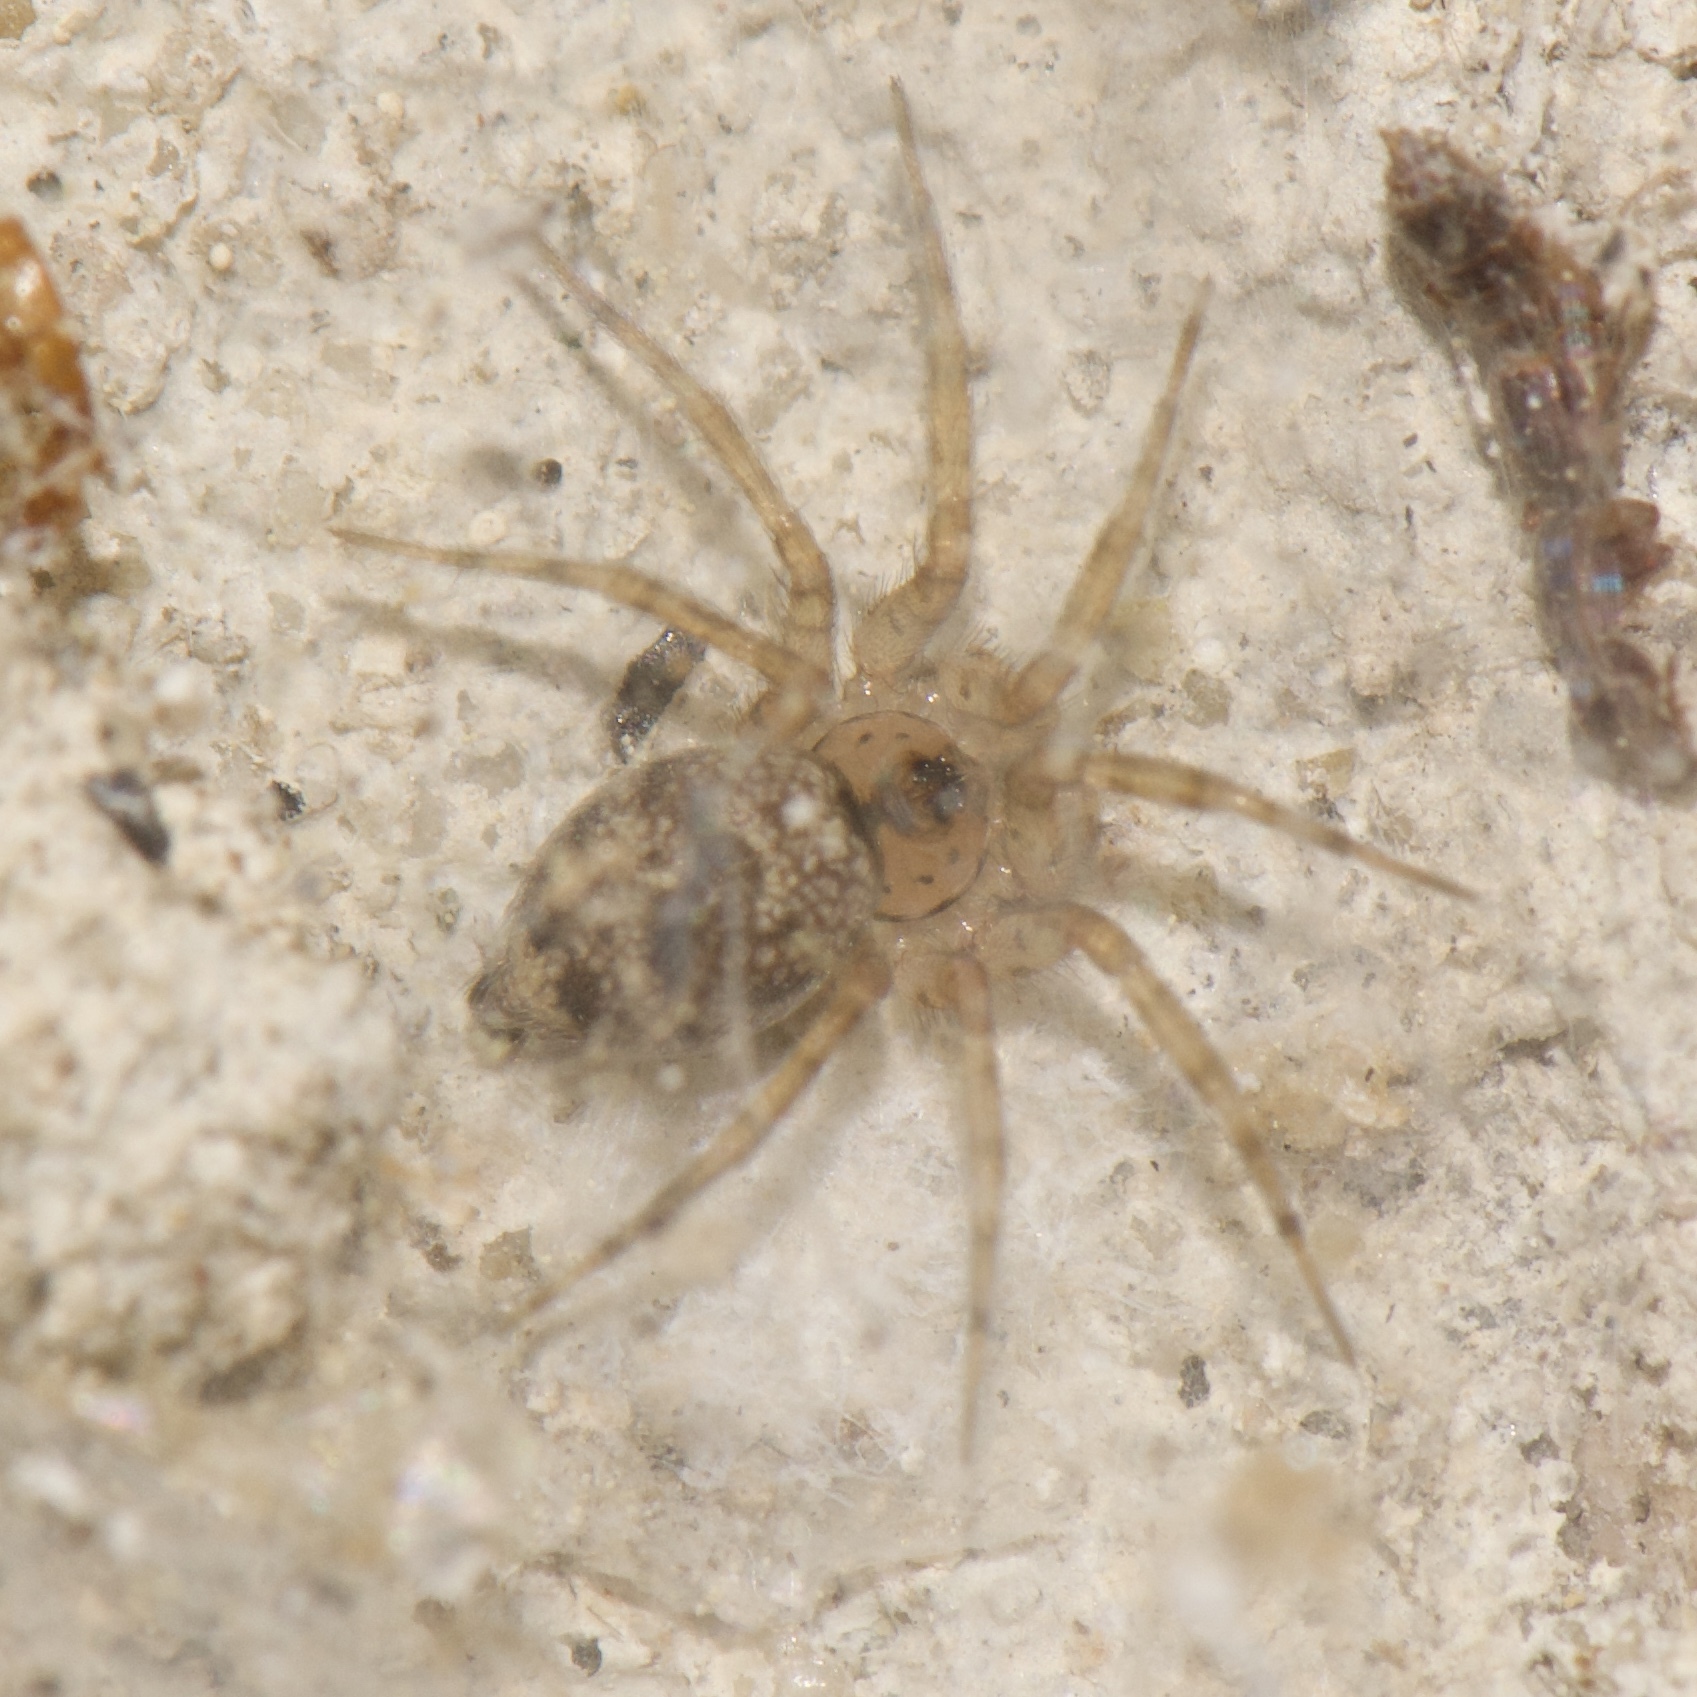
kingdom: Animalia
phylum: Arthropoda
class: Arachnida
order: Araneae
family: Oecobiidae
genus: Oecobius
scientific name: Oecobius navus
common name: Flatmesh weaver
